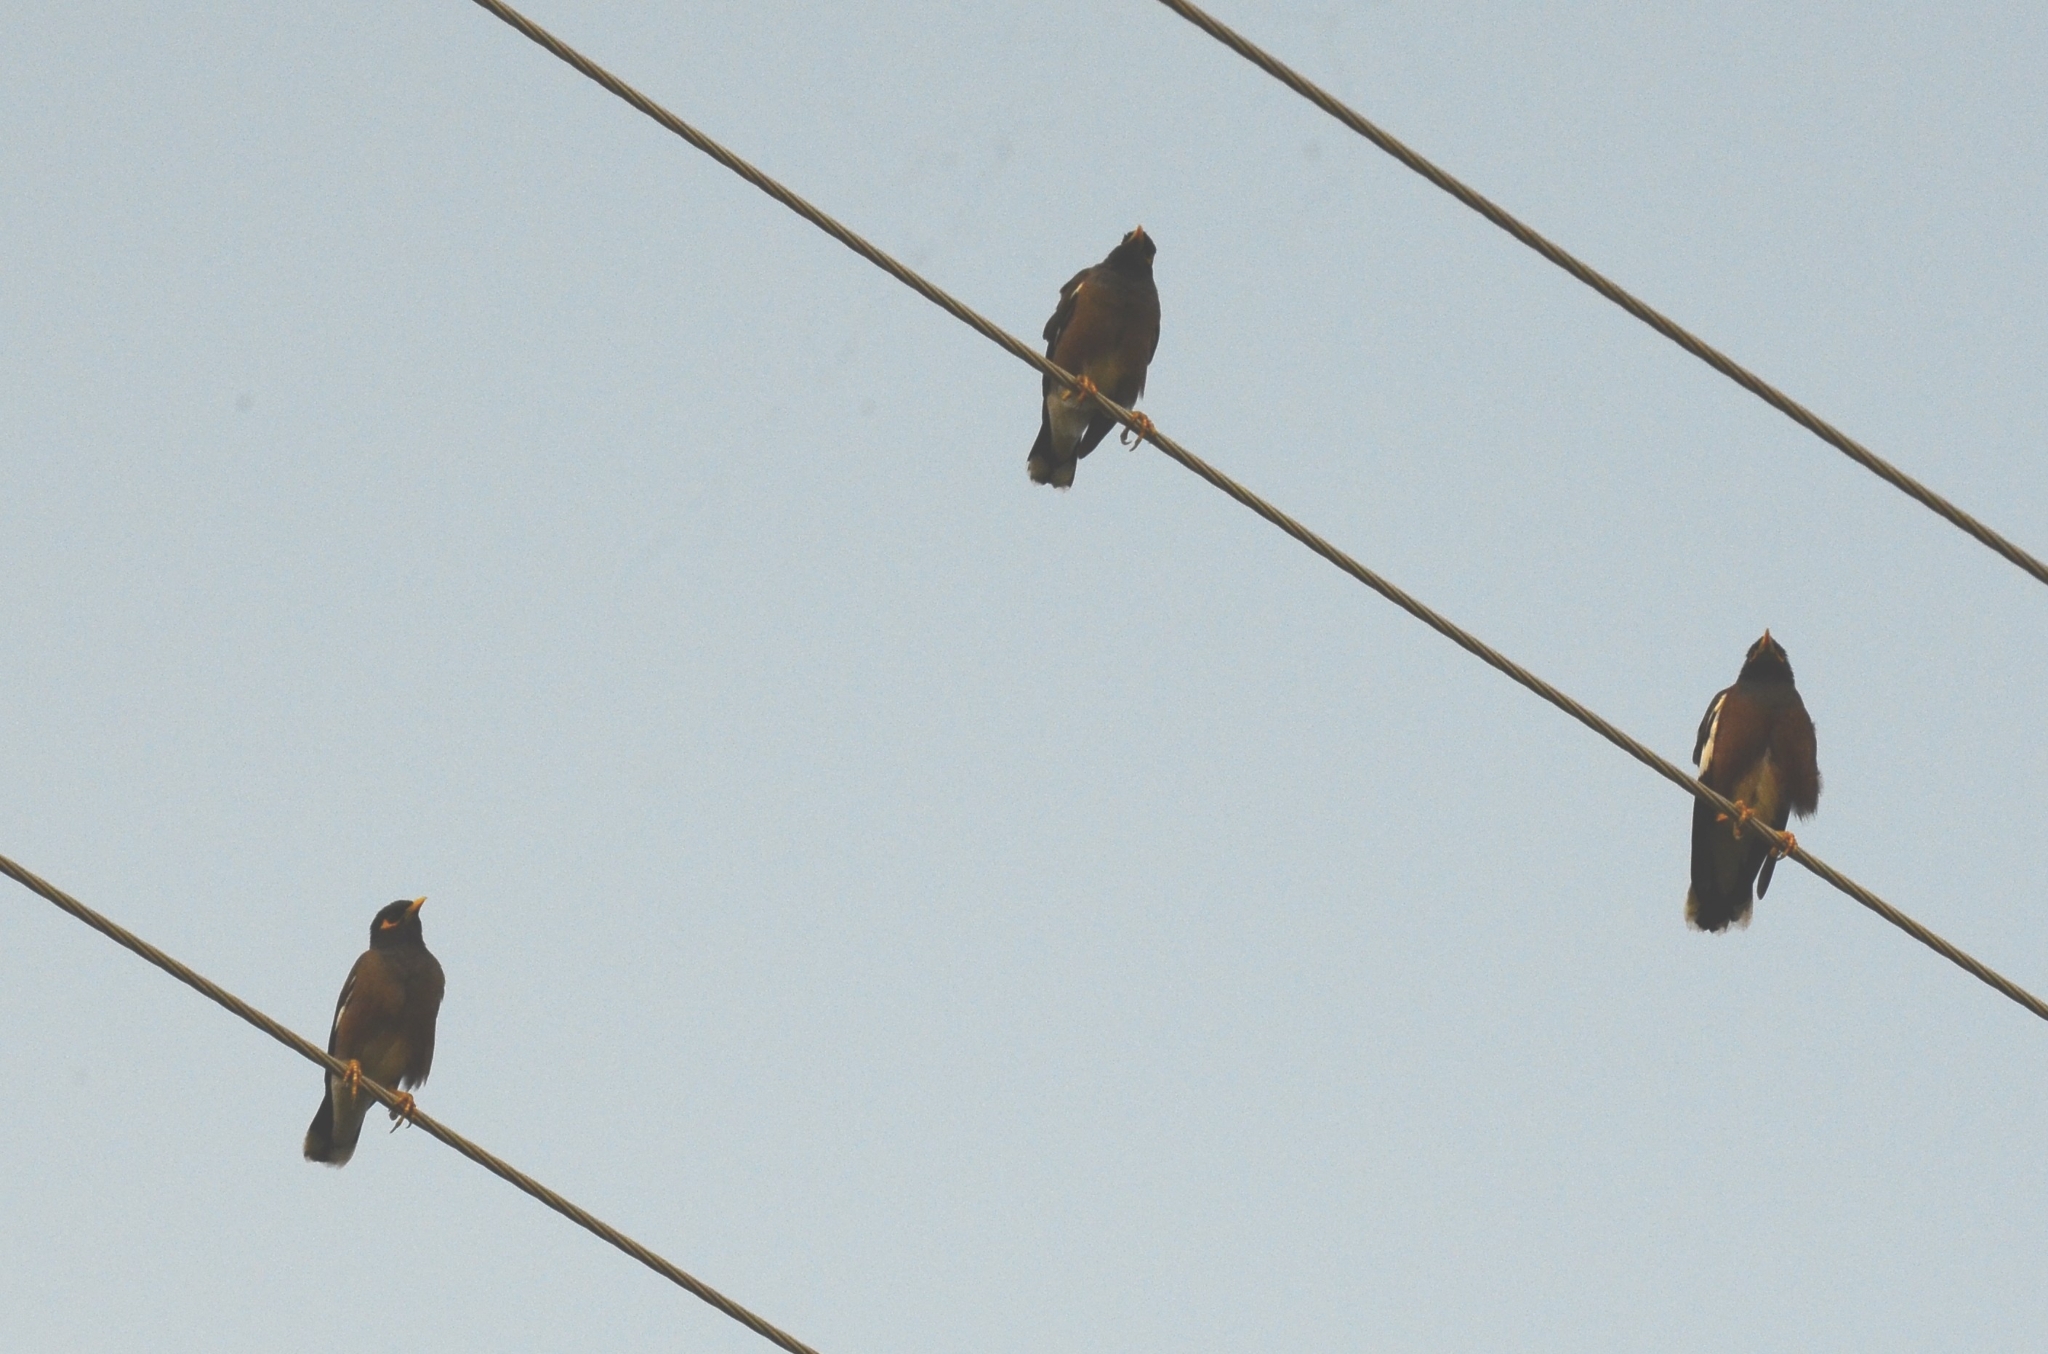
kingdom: Animalia
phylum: Chordata
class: Aves
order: Passeriformes
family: Sturnidae
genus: Acridotheres
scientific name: Acridotheres tristis
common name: Common myna
